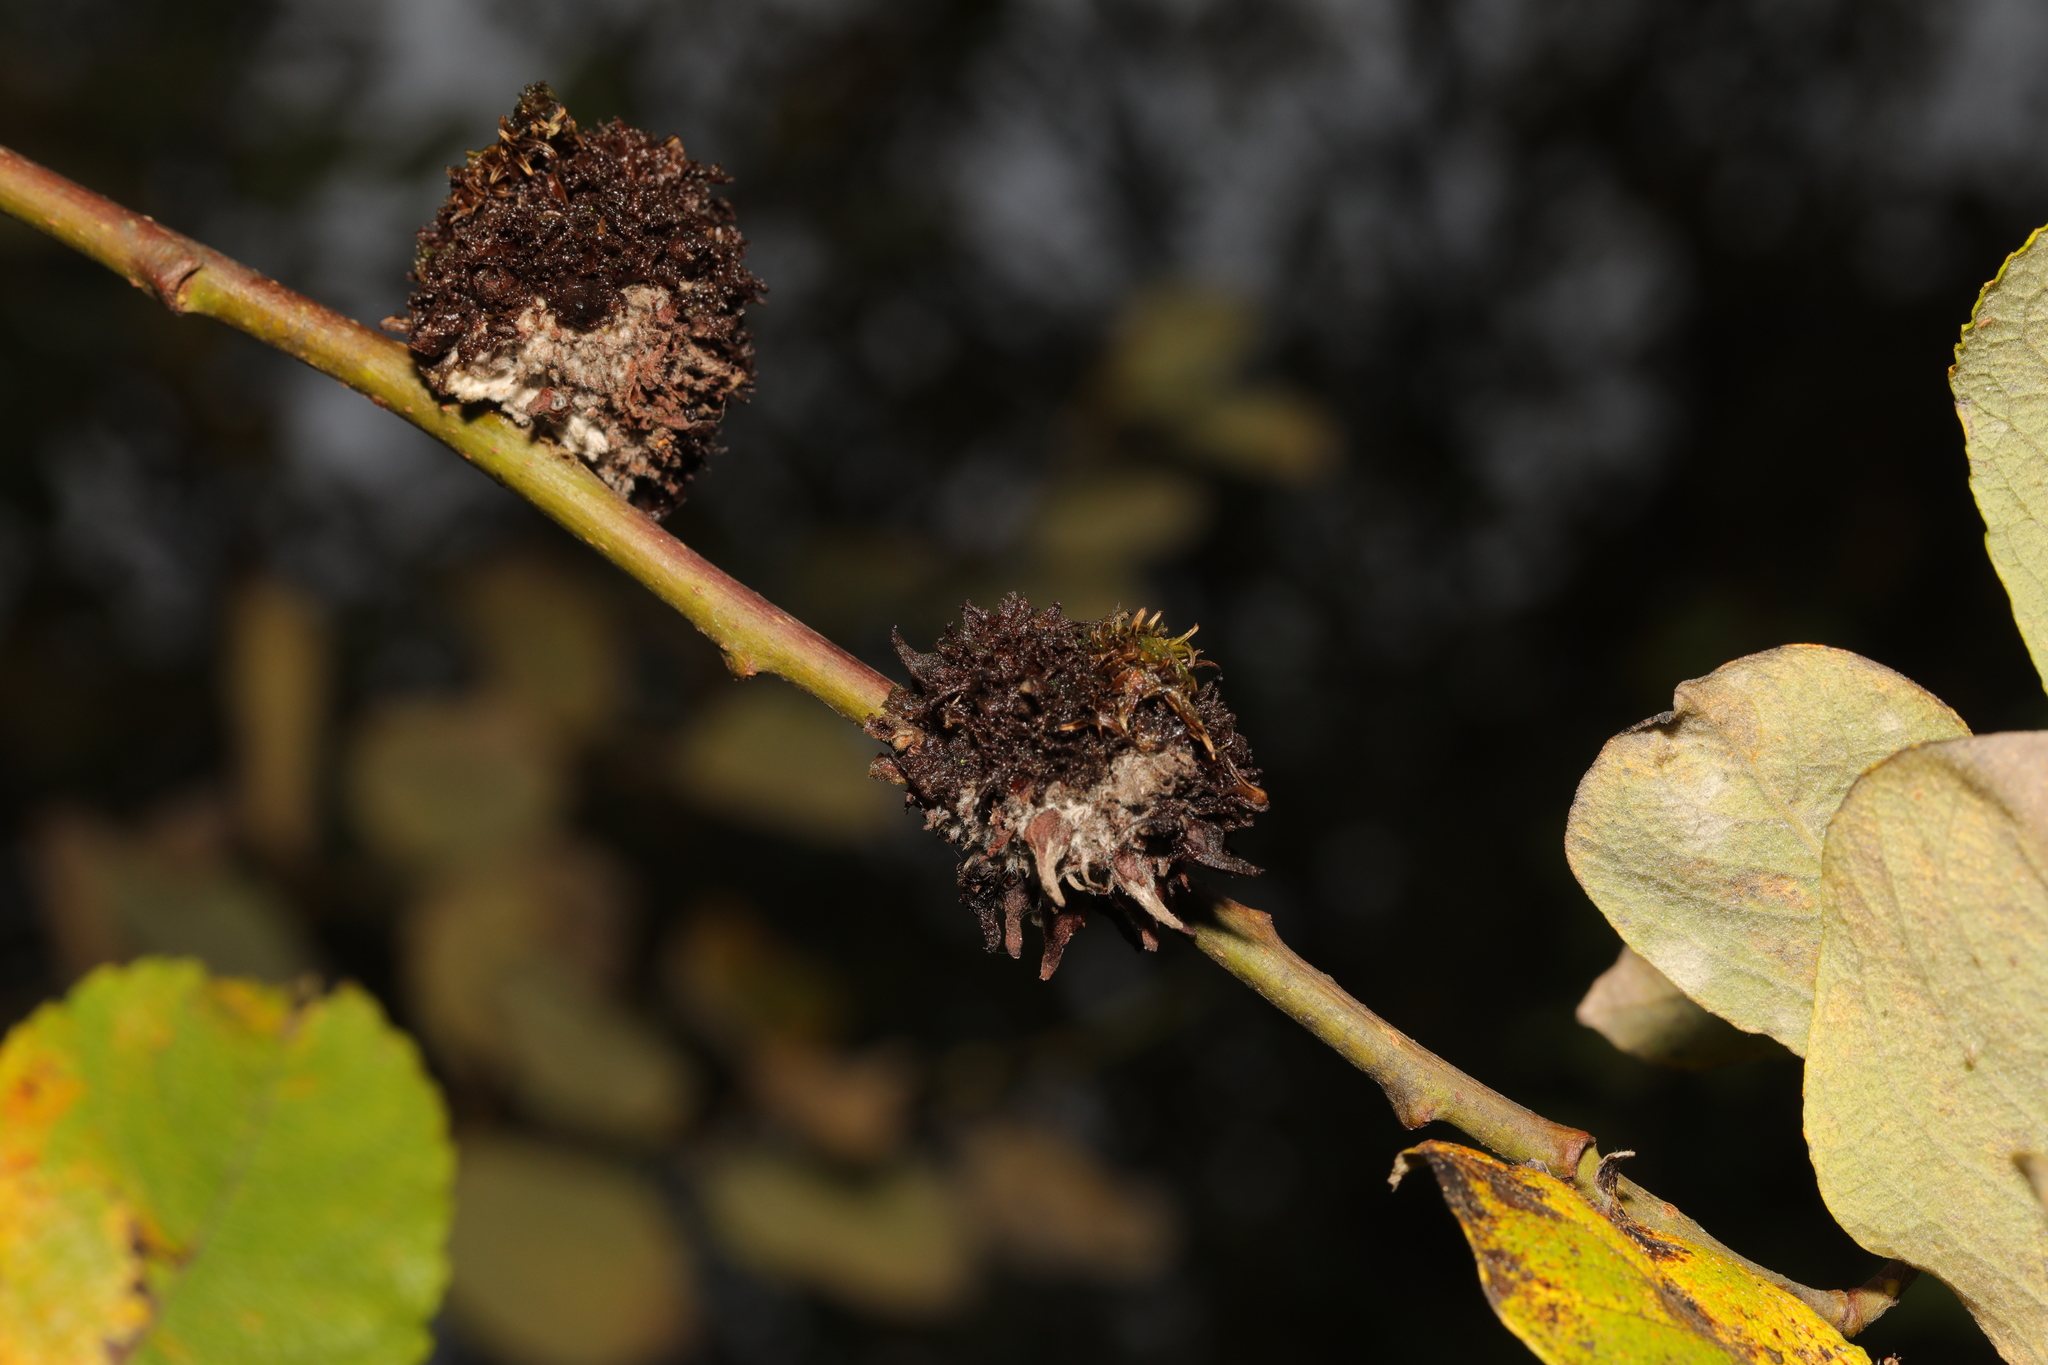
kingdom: Animalia
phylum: Arthropoda
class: Insecta
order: Diptera
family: Cecidomyiidae
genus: Rabdophaga
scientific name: Rabdophaga rosaria
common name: Willow rose gall midge
